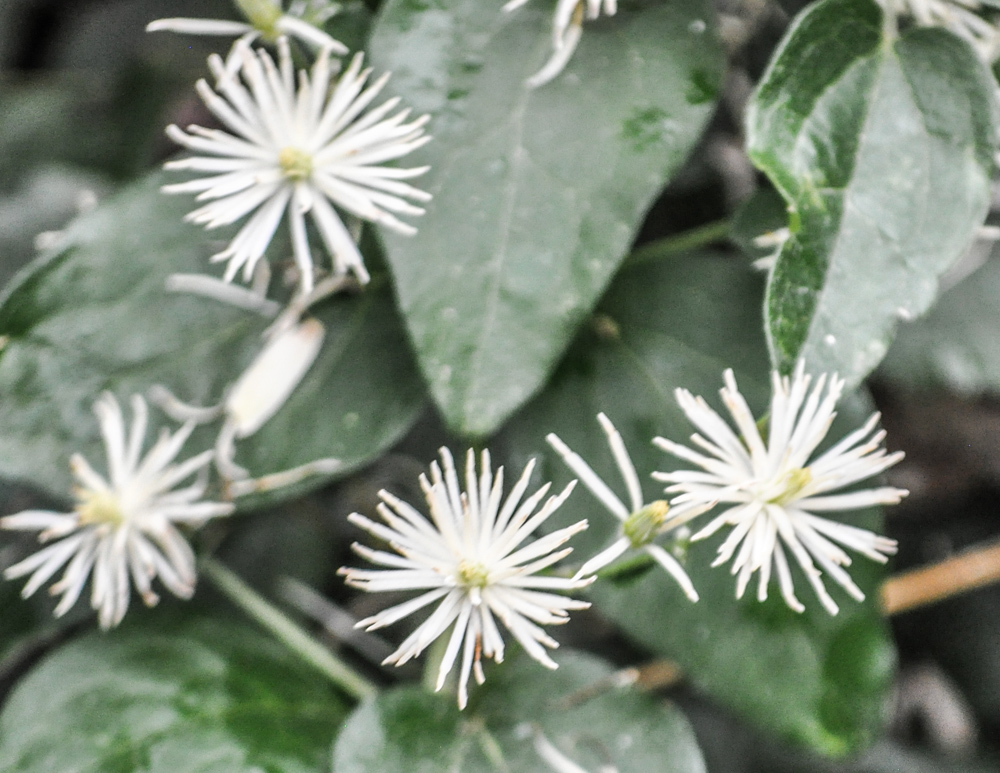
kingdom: Plantae
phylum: Tracheophyta
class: Magnoliopsida
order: Ranunculales
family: Ranunculaceae
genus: Clematis
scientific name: Clematis vitalba
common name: Evergreen clematis
